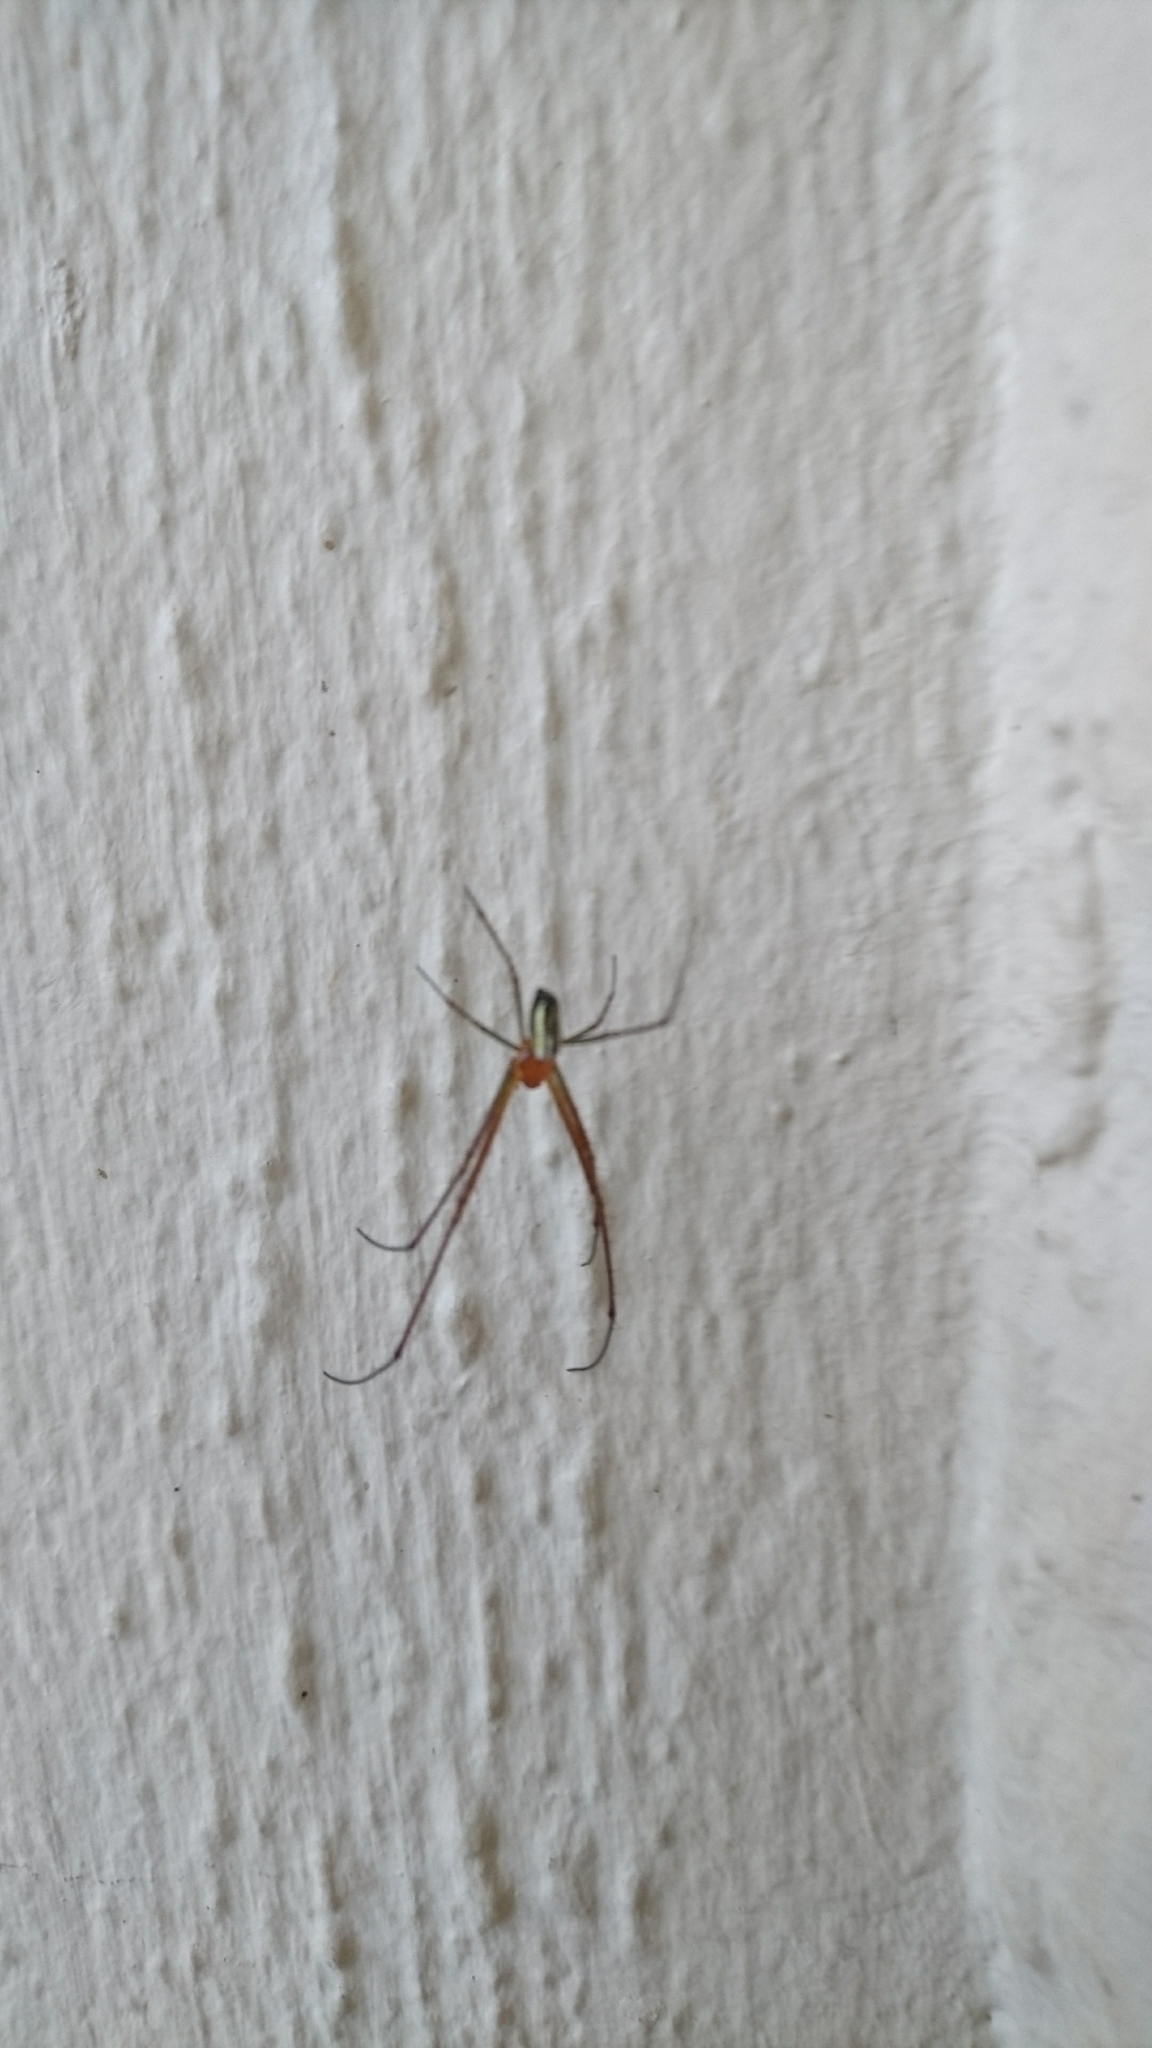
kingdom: Animalia
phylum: Arthropoda
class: Arachnida
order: Araneae
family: Araneidae
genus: Nephila
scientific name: Nephila pilipes
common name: Giant golden orb weaver
